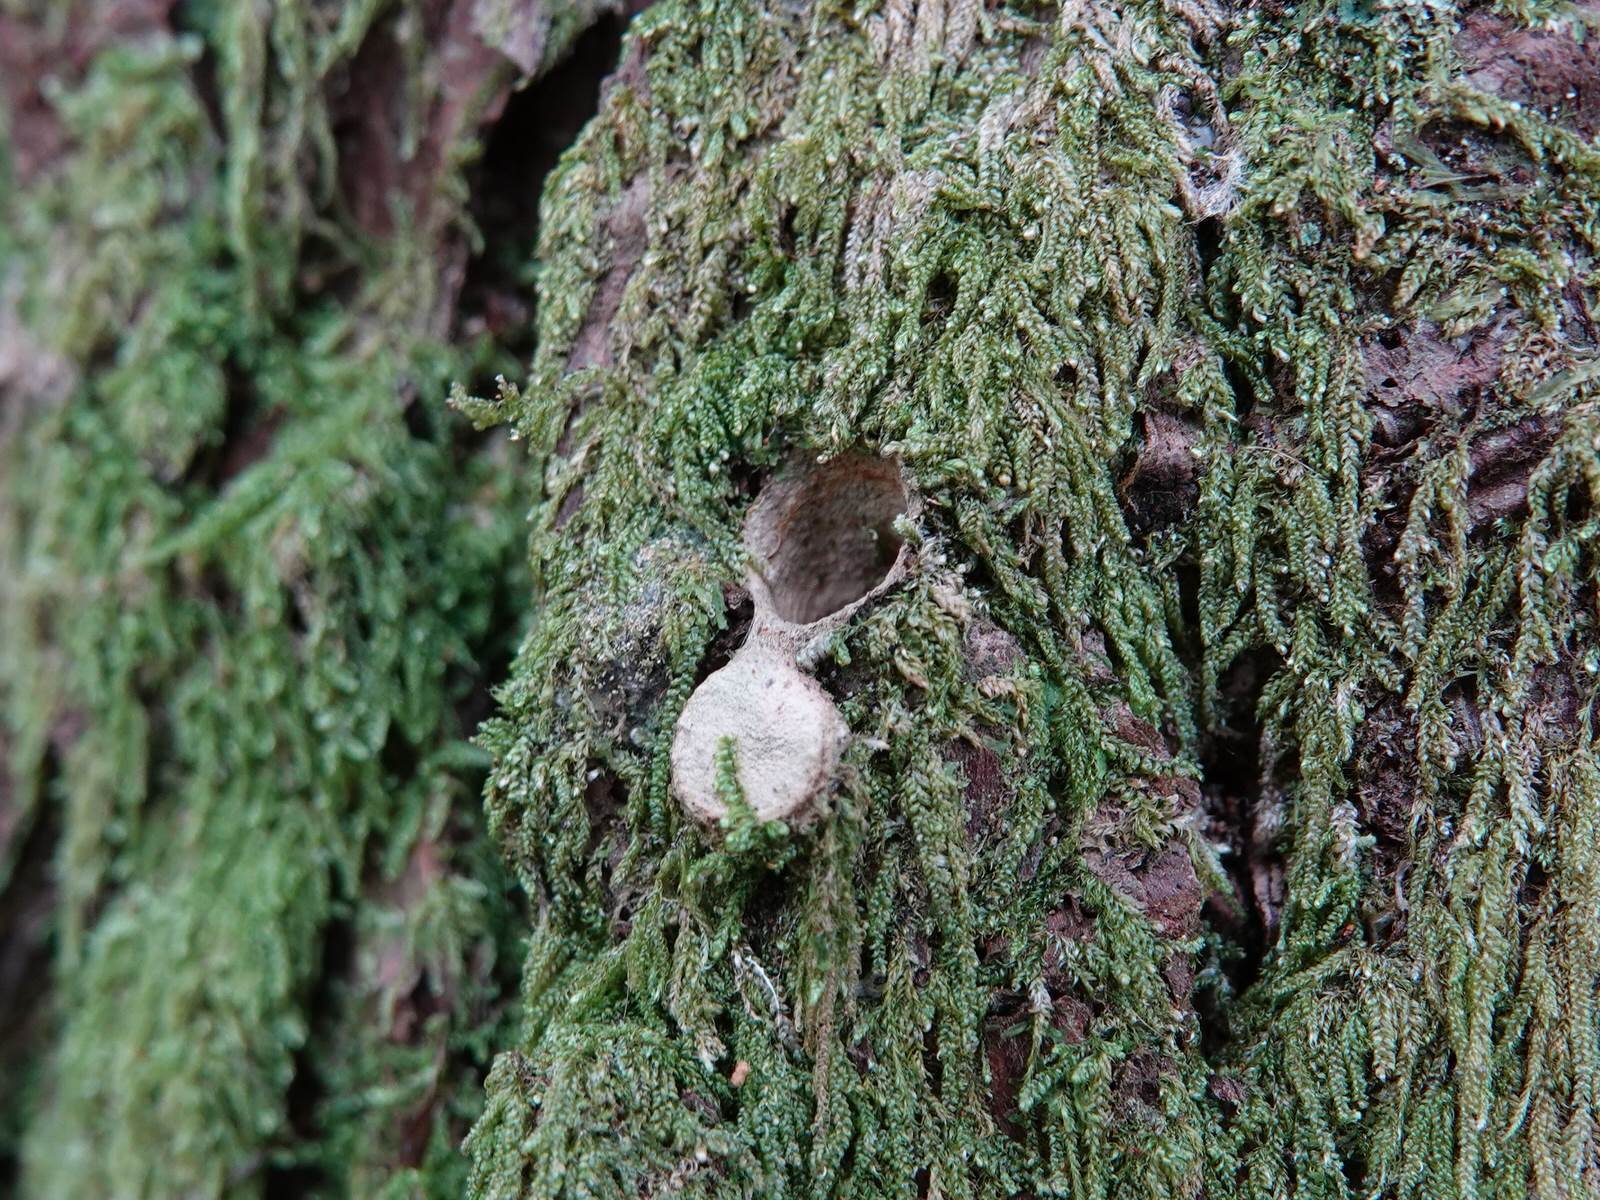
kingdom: Animalia
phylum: Arthropoda
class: Arachnida
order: Araneae
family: Migidae
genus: Migas
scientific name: Migas
